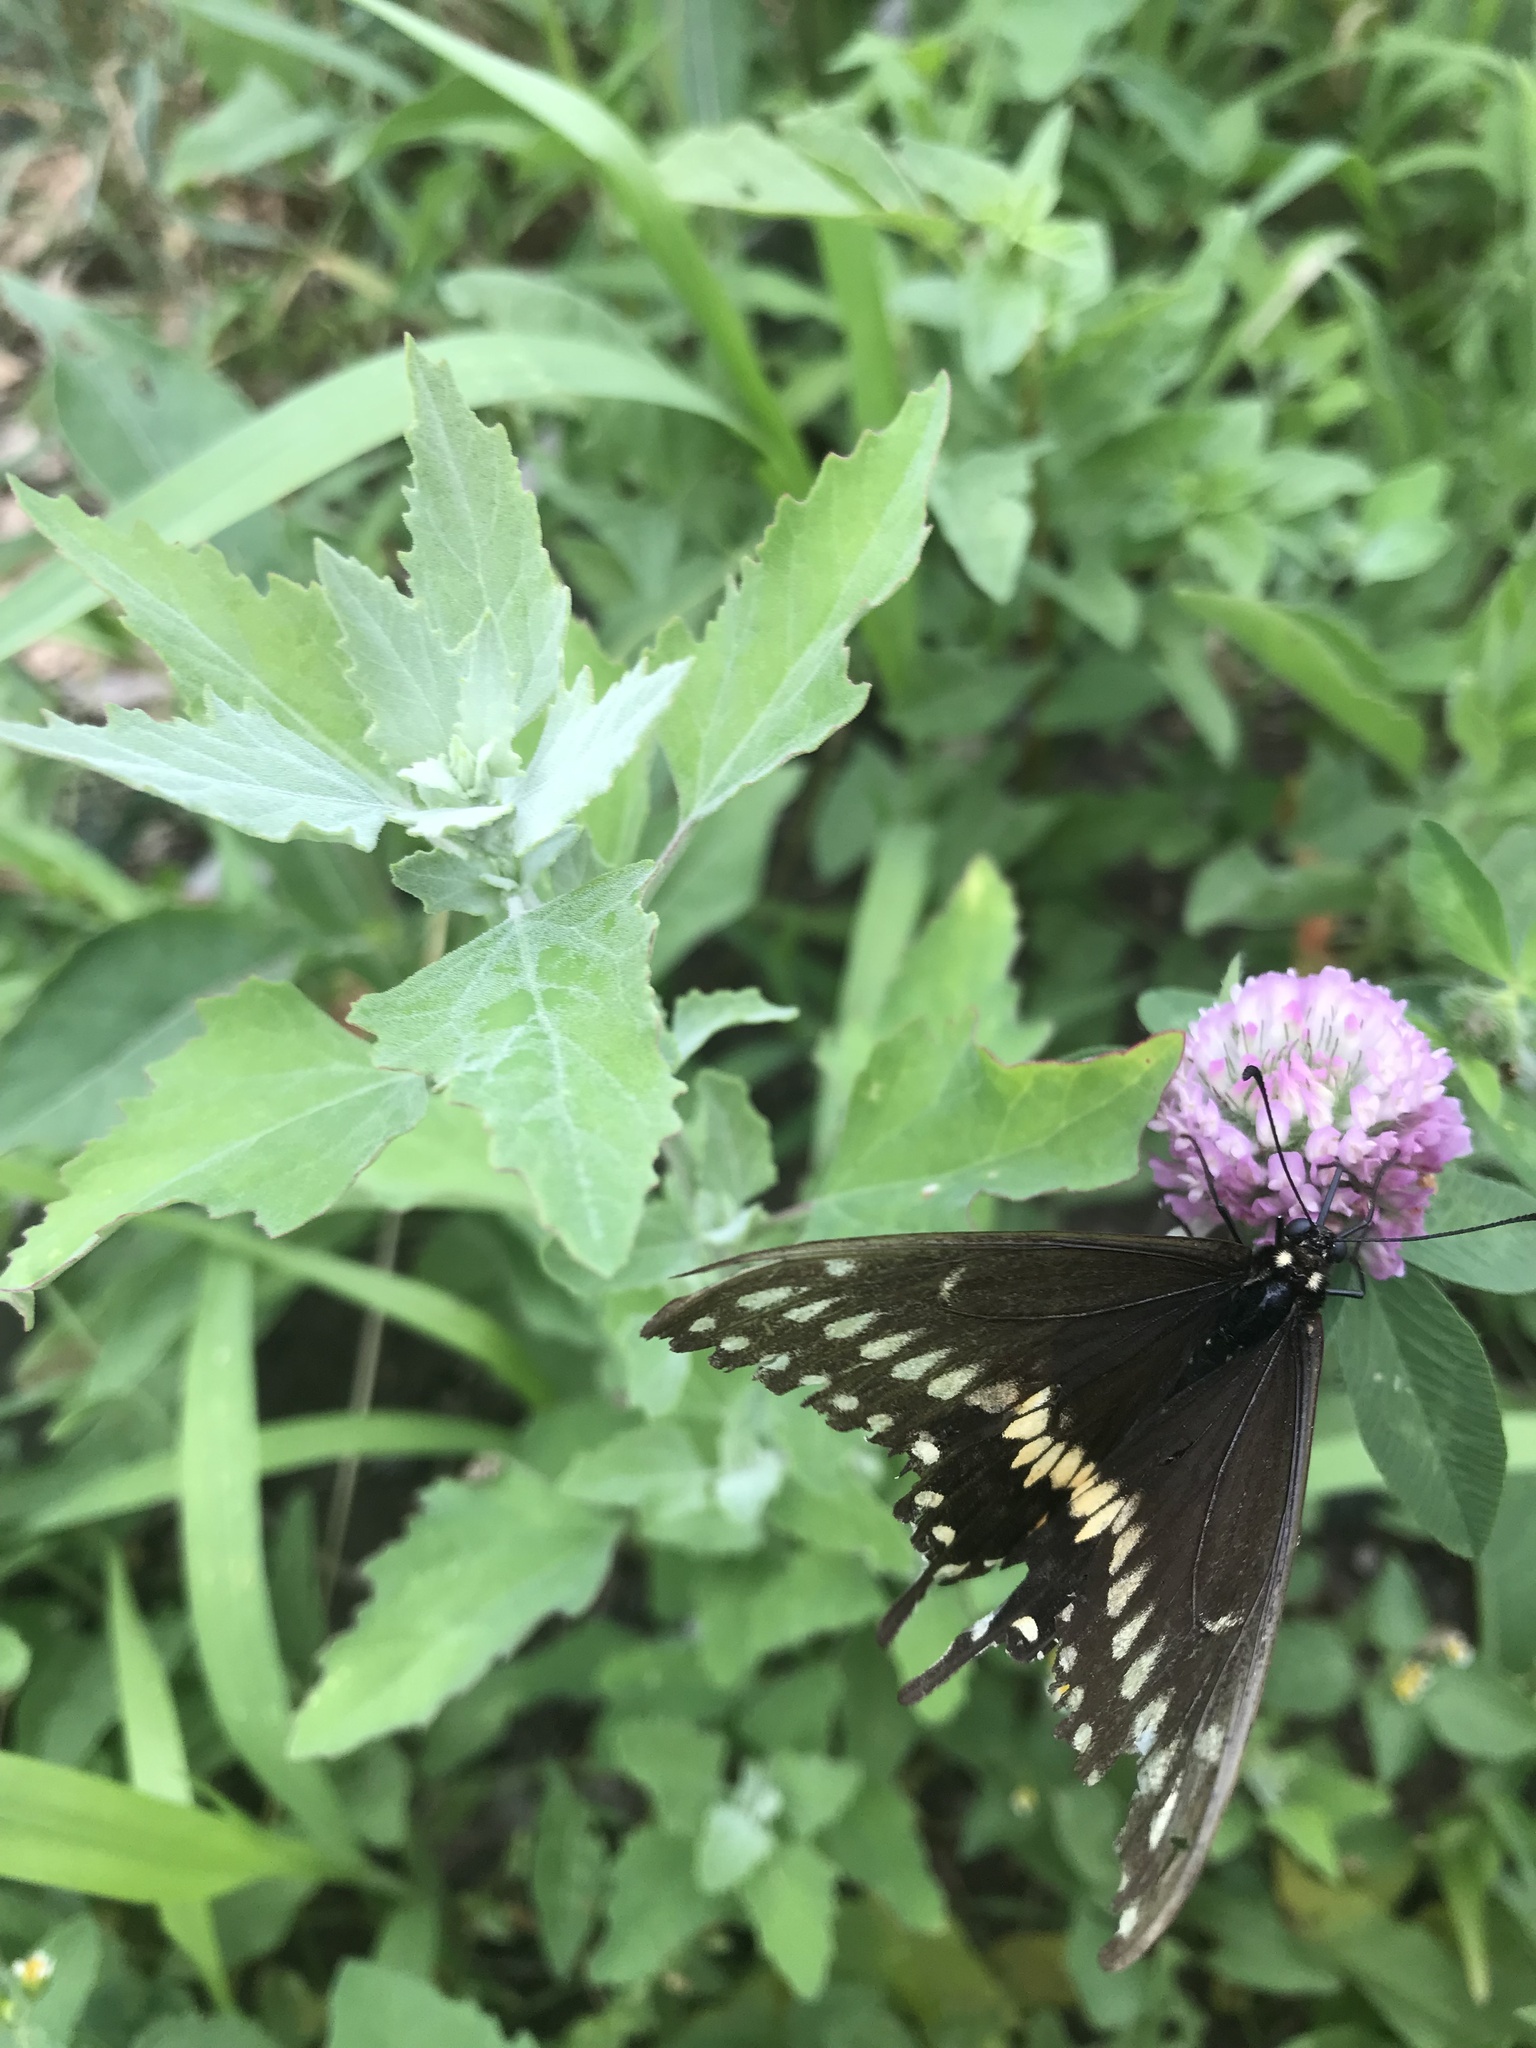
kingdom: Animalia
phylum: Arthropoda
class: Insecta
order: Lepidoptera
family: Papilionidae
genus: Papilio
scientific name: Papilio polyxenes
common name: Black swallowtail
